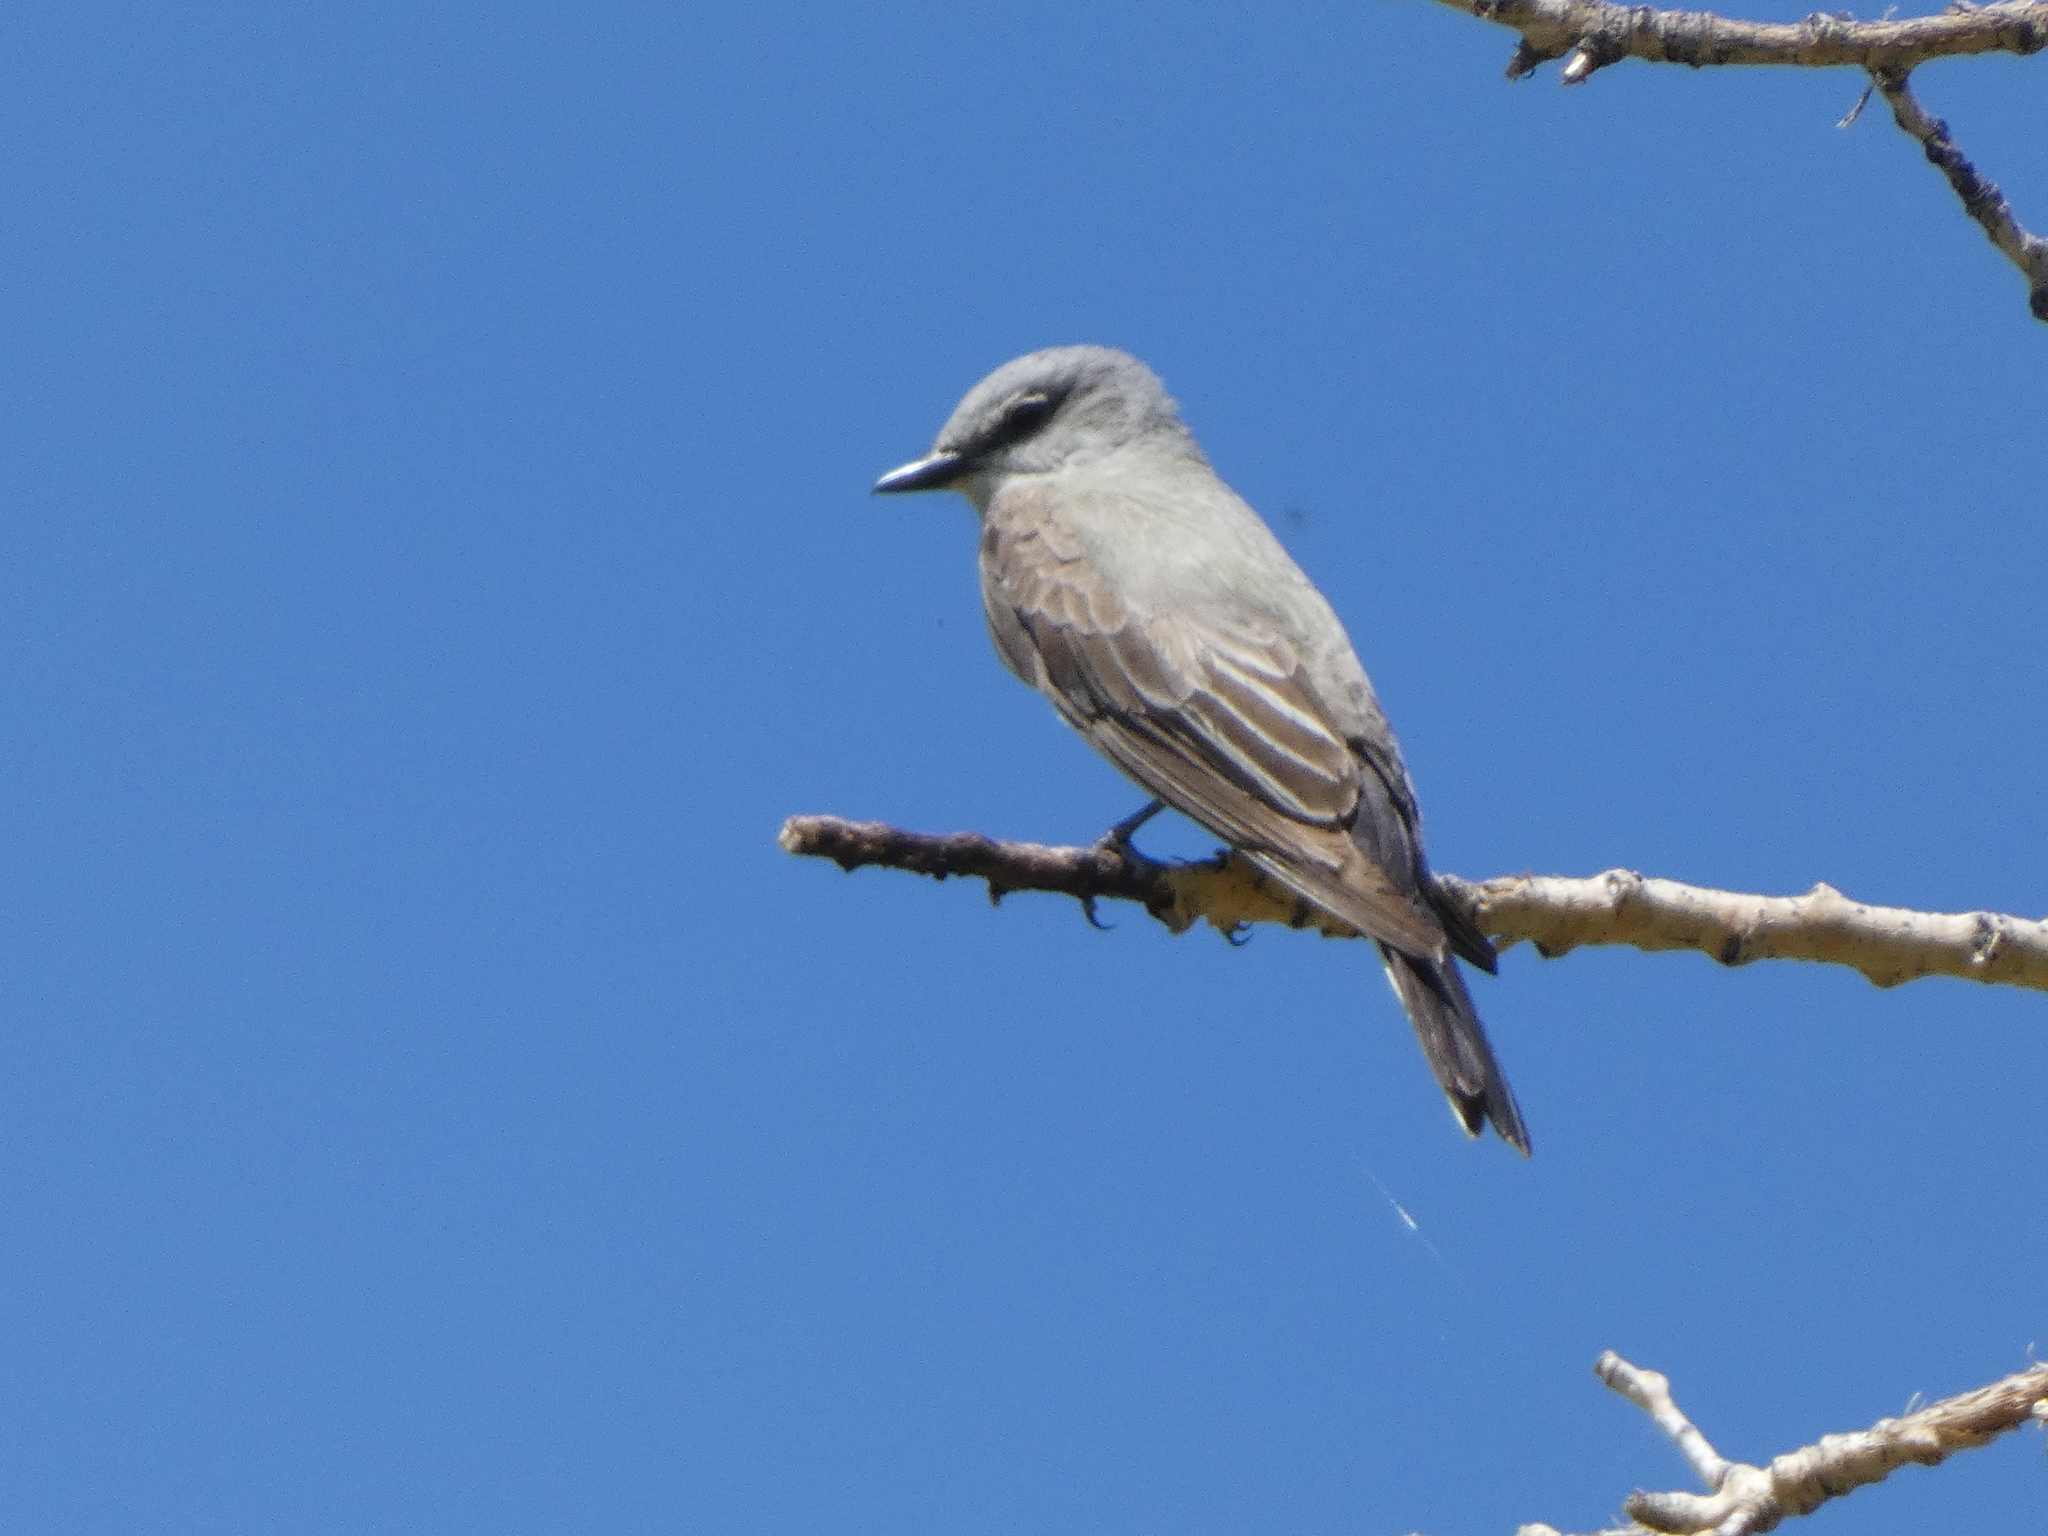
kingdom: Animalia
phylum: Chordata
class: Aves
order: Passeriformes
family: Tyrannidae
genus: Tyrannus
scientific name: Tyrannus verticalis
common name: Western kingbird
